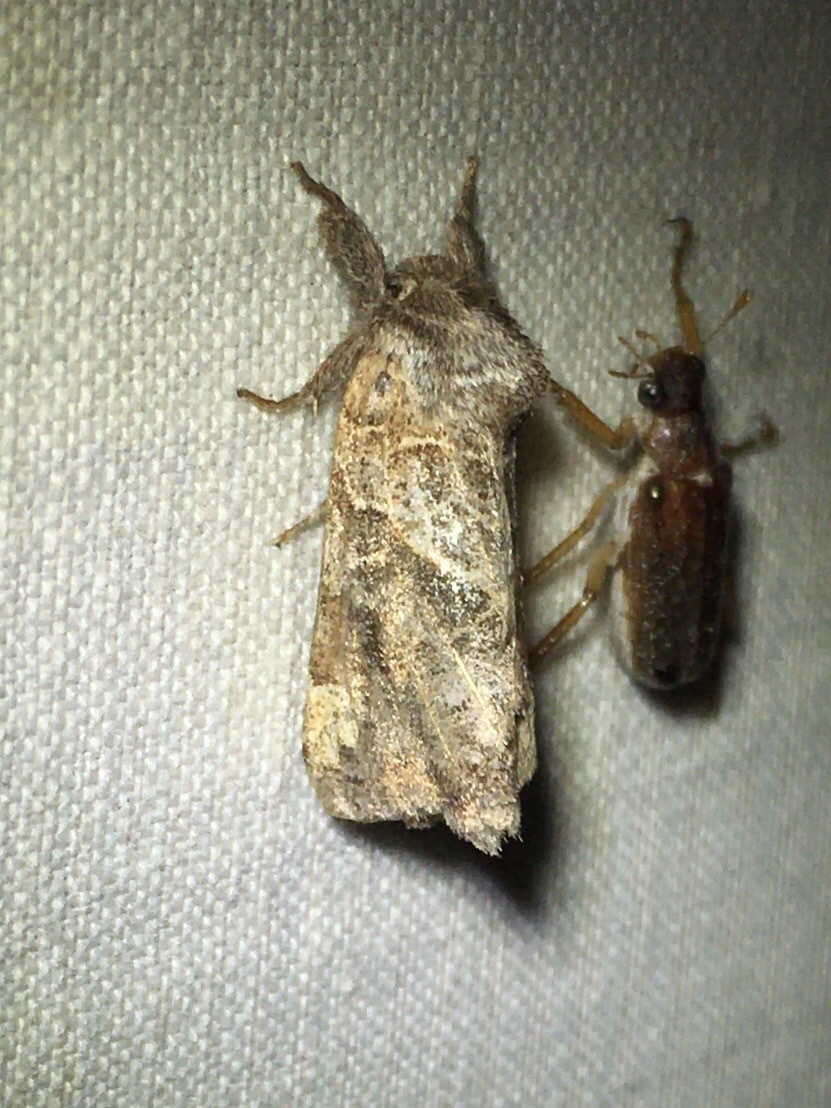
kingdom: Animalia
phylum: Arthropoda
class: Insecta
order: Lepidoptera
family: Notodontidae
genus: Clostera
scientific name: Clostera strigosa
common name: Striped chocolate-tip moth
